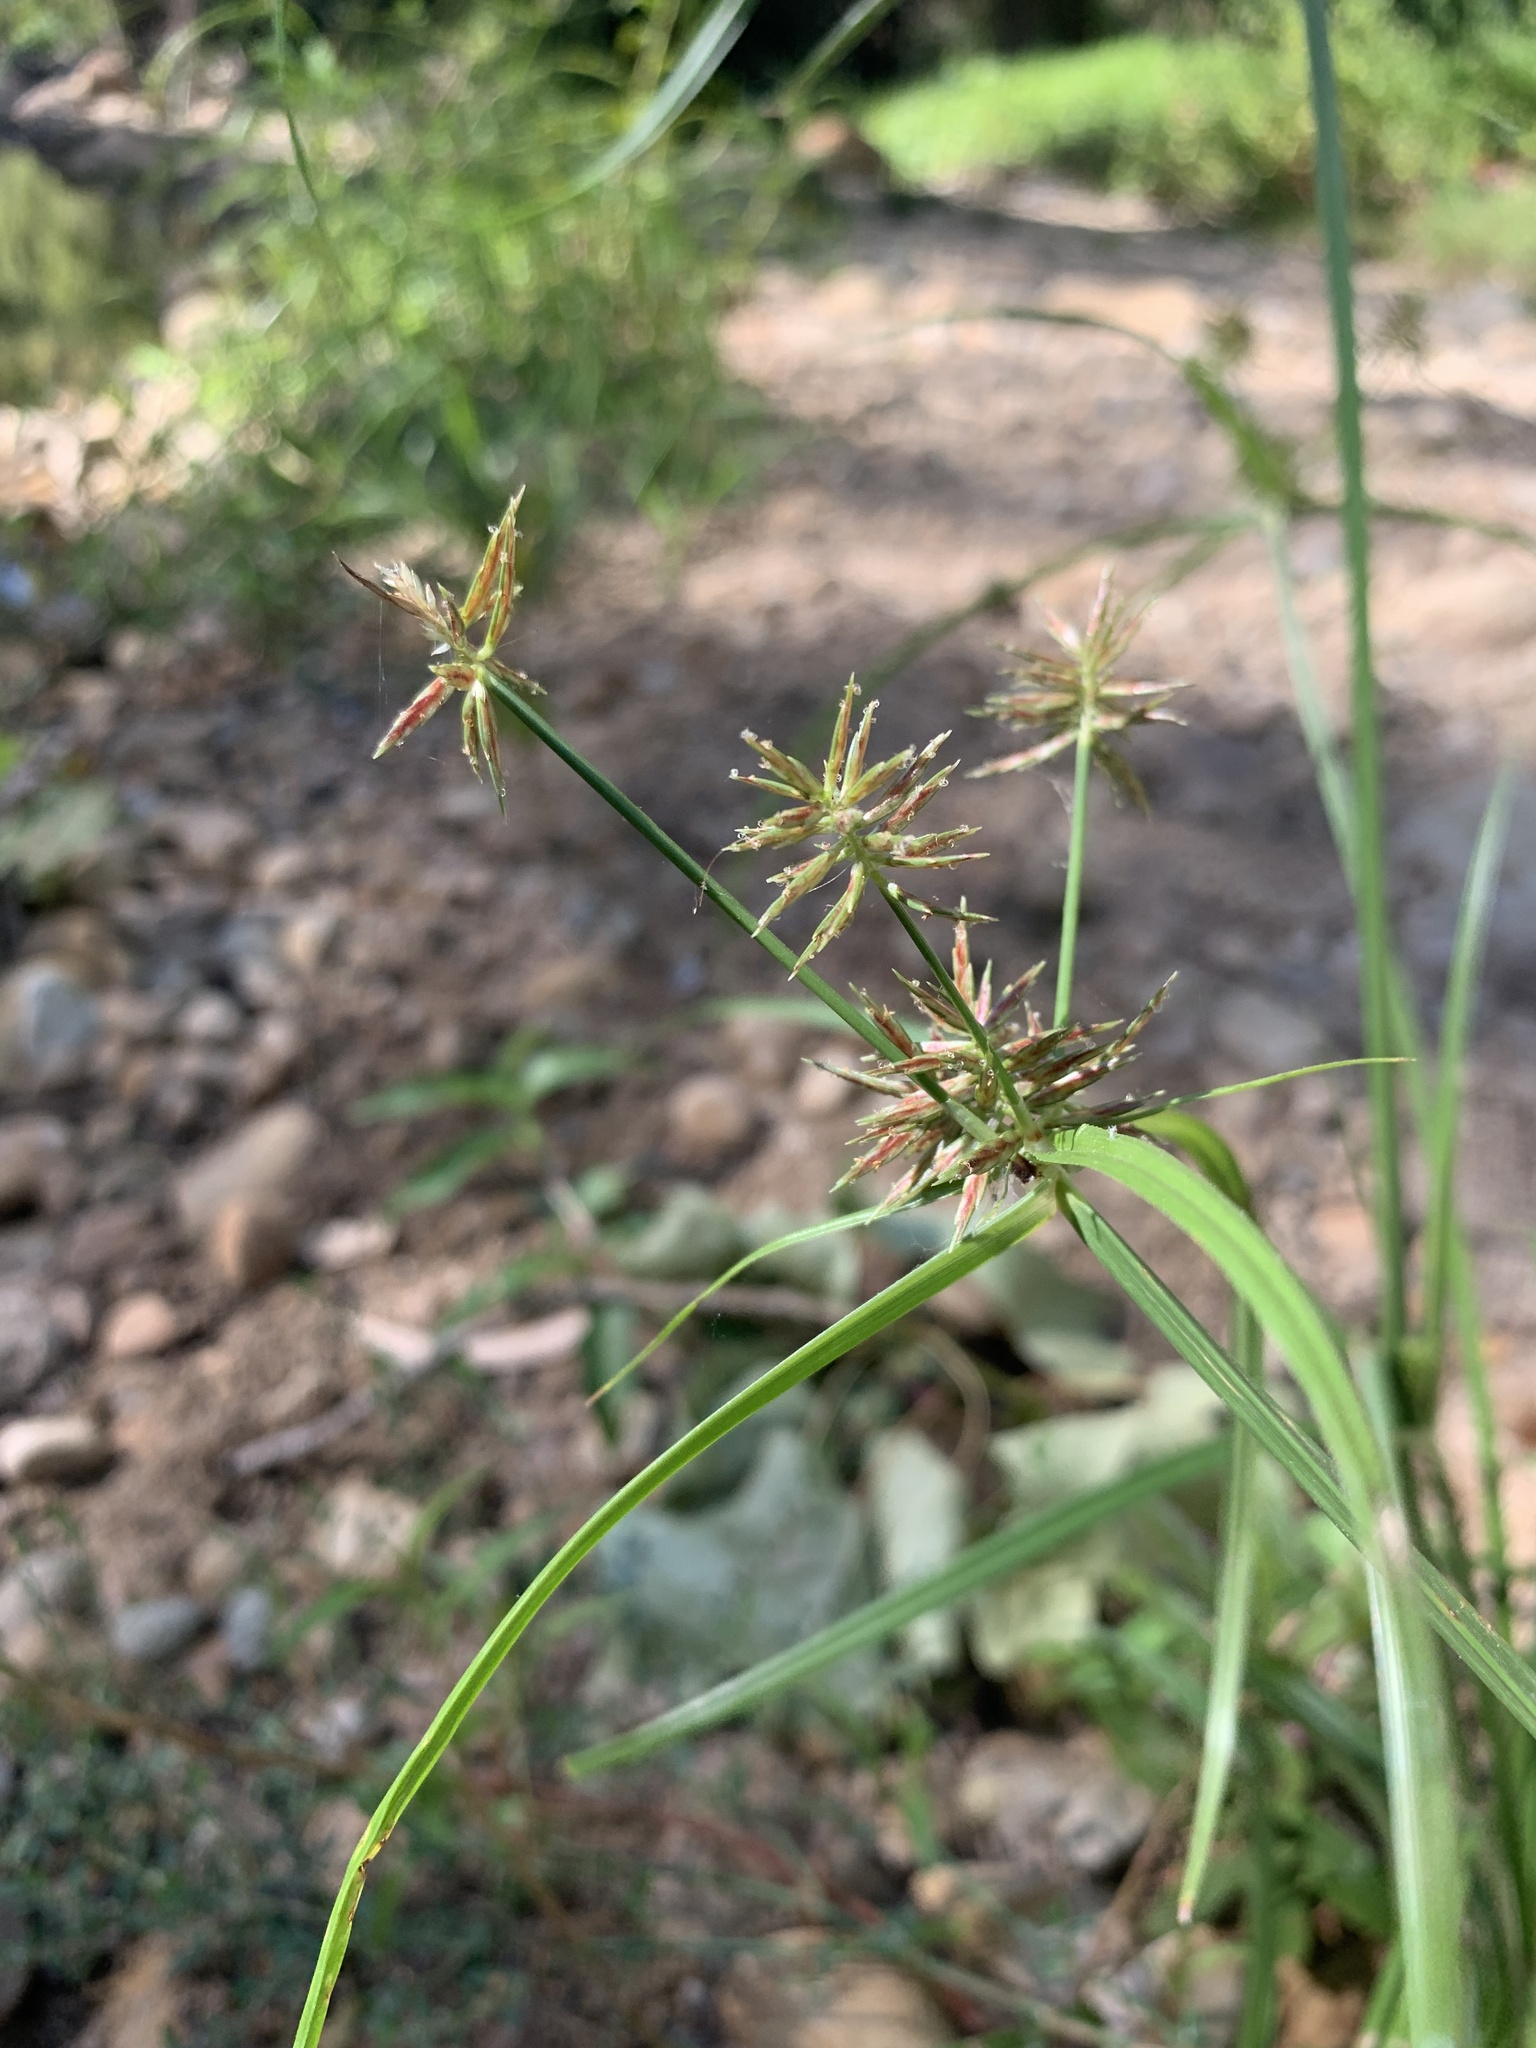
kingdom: Plantae
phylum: Tracheophyta
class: Liliopsida
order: Poales
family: Cyperaceae
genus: Cyperus
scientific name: Cyperus congestus
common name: Dense flat sedge
